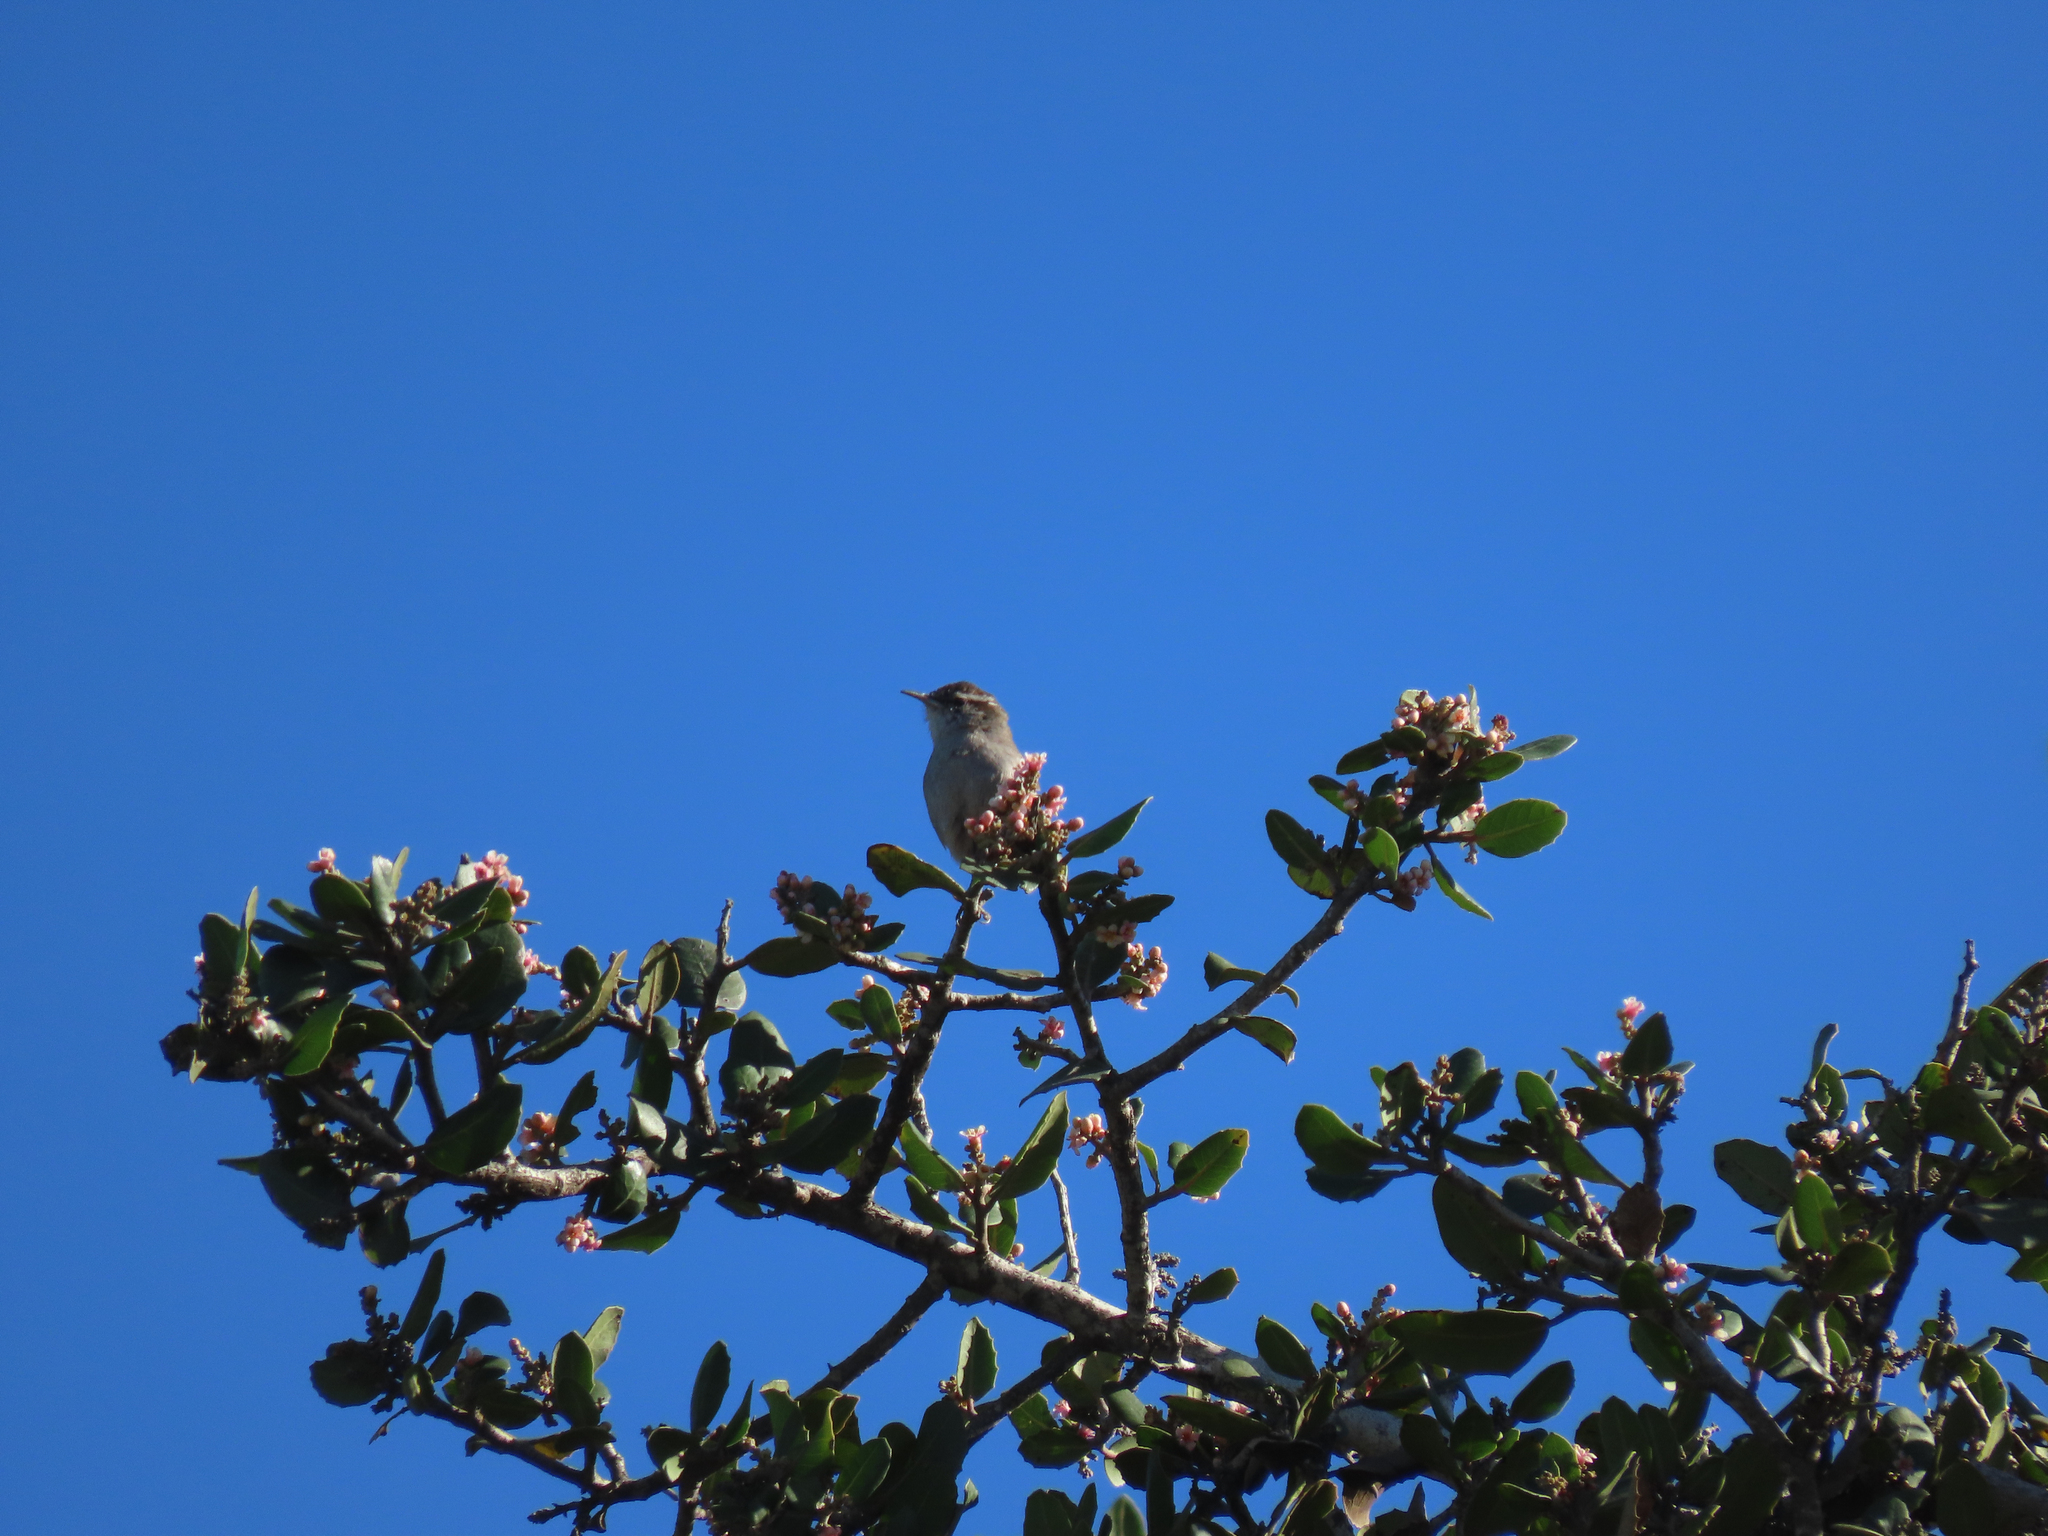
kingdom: Animalia
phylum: Chordata
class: Aves
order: Passeriformes
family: Troglodytidae
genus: Thryomanes
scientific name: Thryomanes bewickii
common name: Bewick's wren
